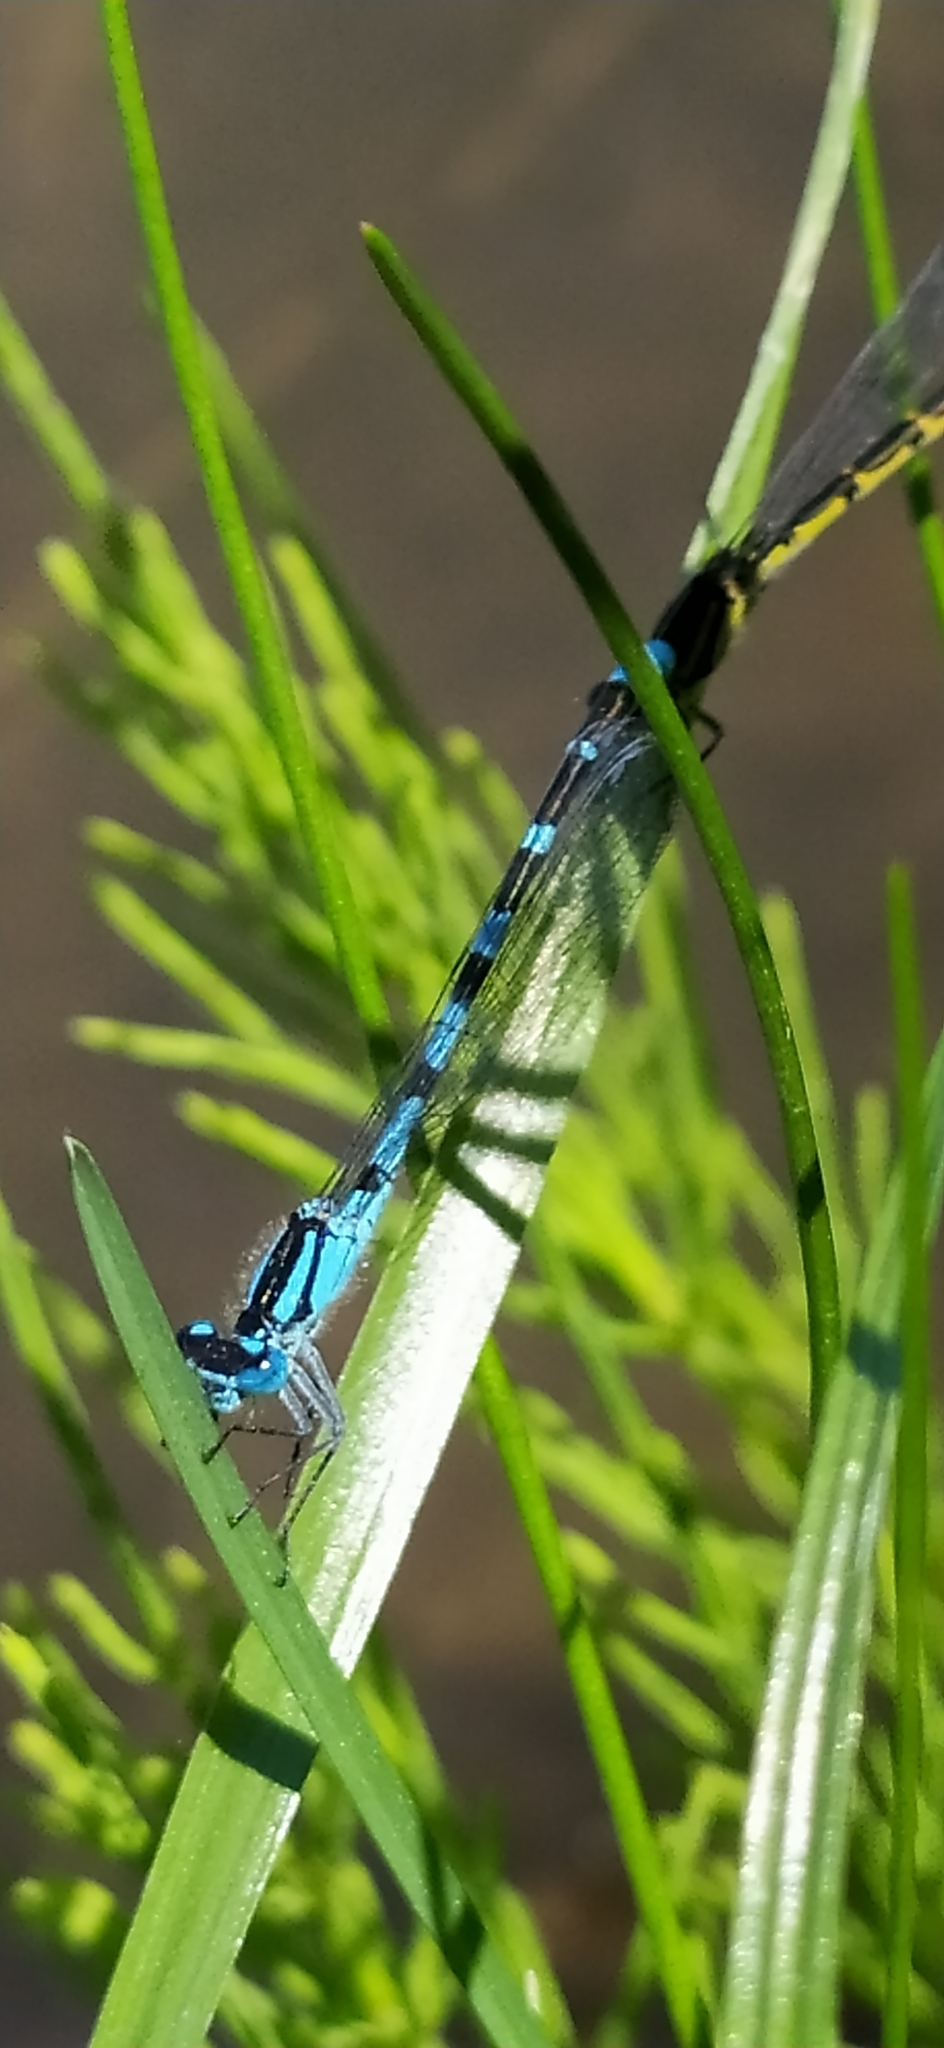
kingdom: Animalia
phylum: Arthropoda
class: Insecta
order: Odonata
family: Coenagrionidae
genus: Enallagma
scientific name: Enallagma cyathigerum
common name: Common blue damselfly
